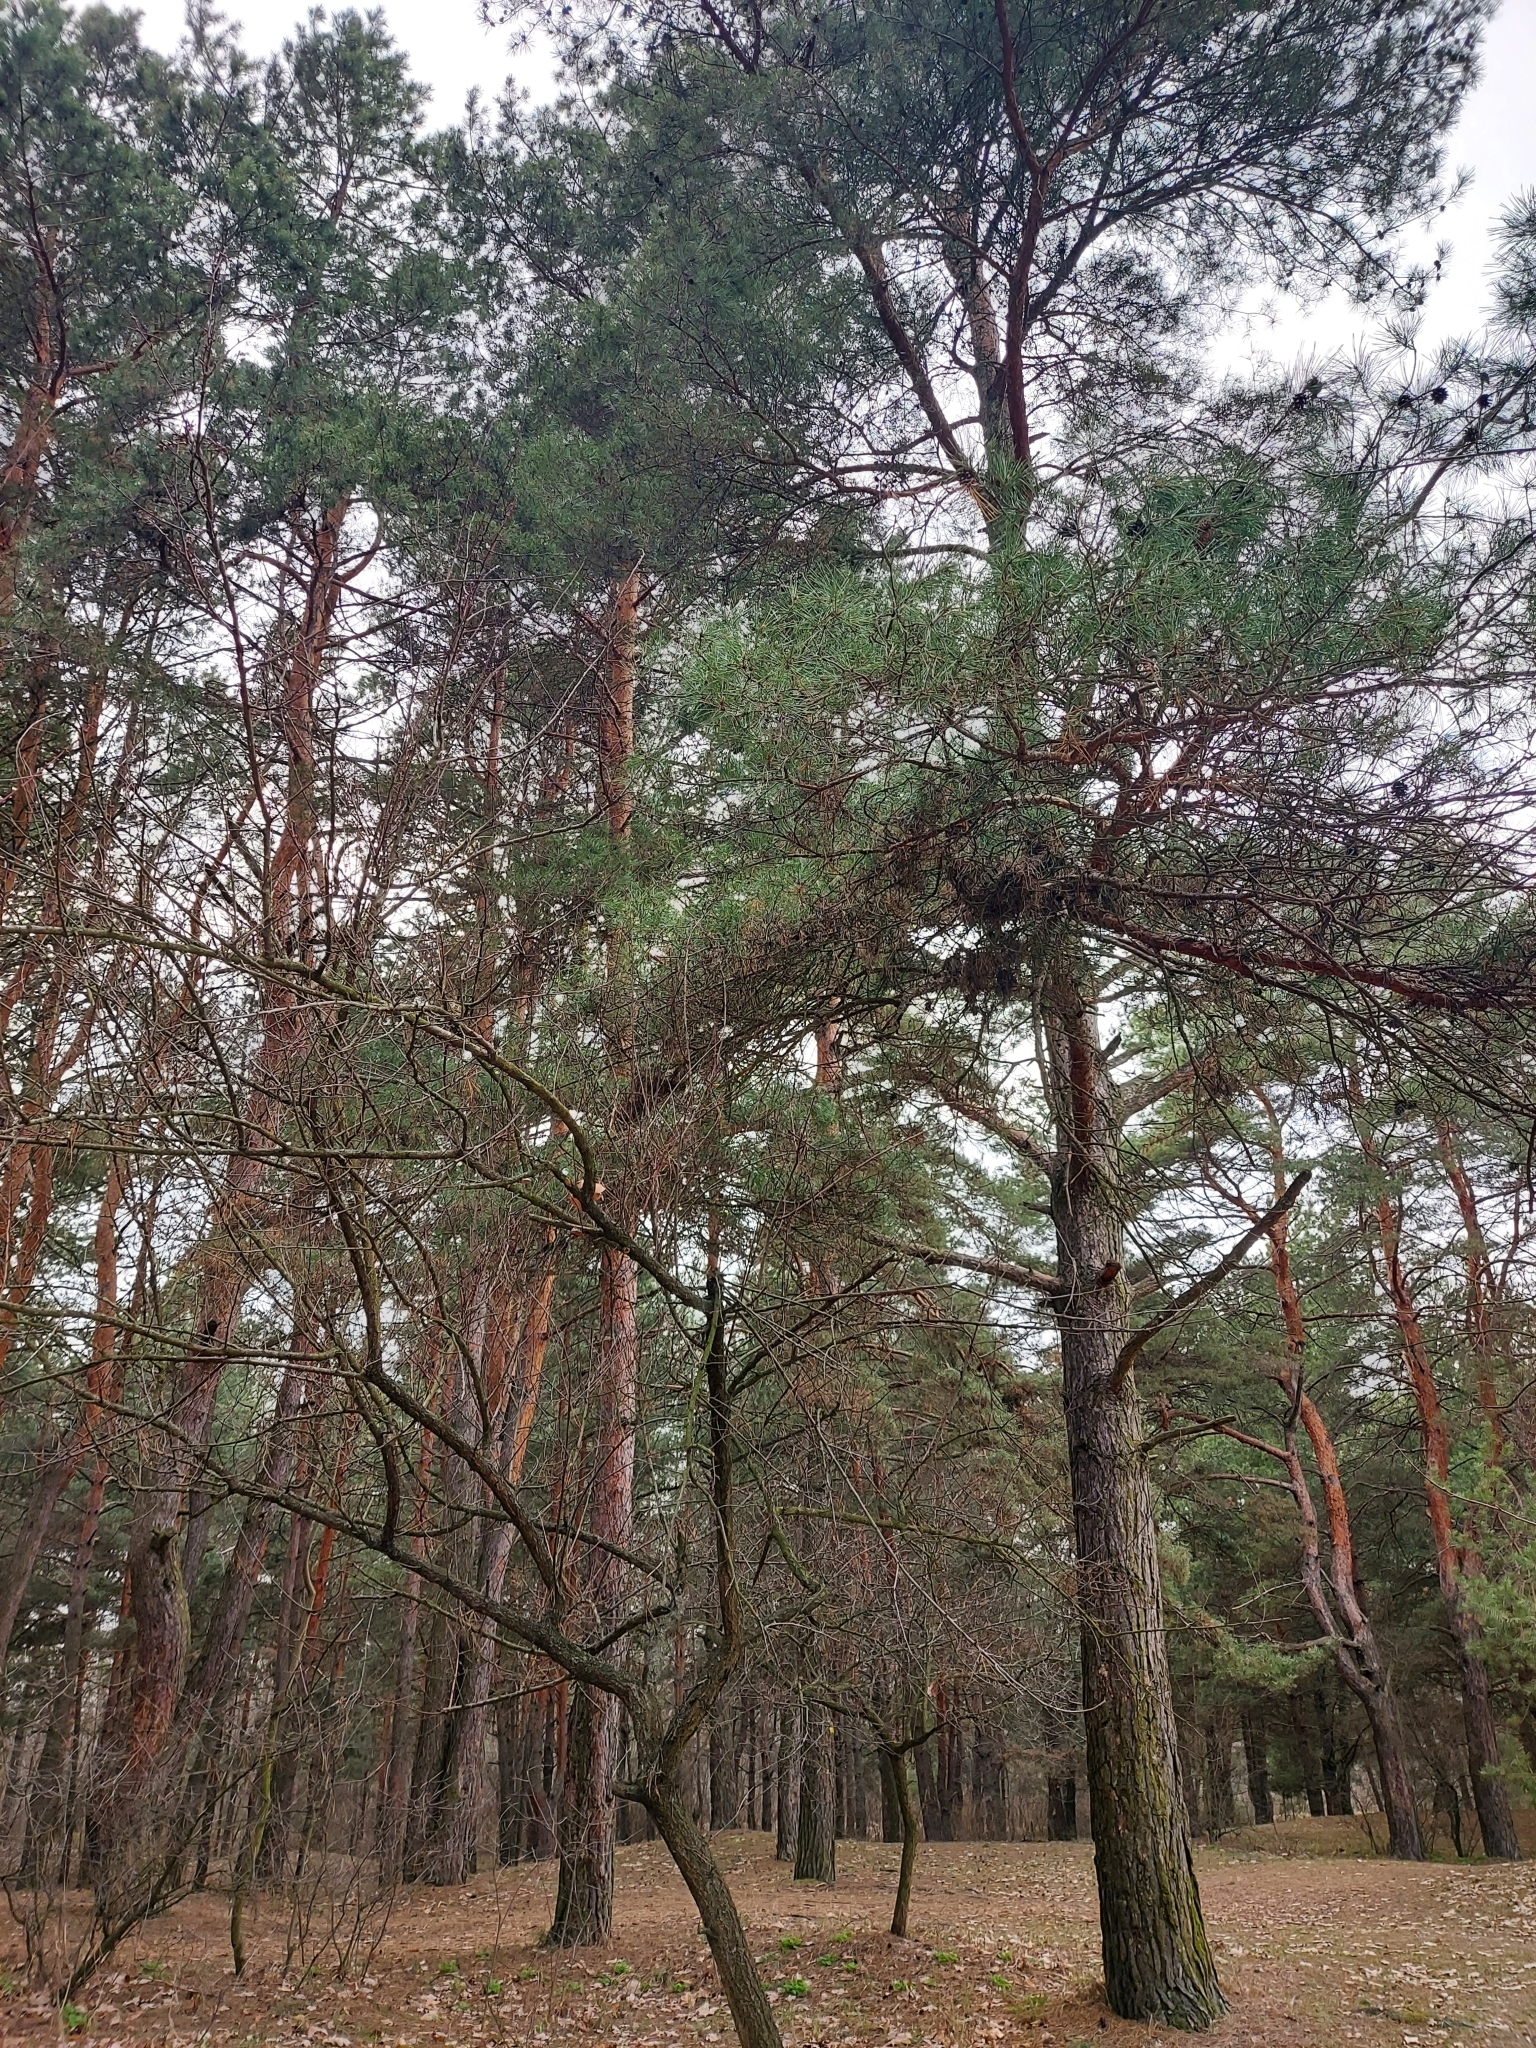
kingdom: Plantae
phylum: Tracheophyta
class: Pinopsida
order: Pinales
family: Pinaceae
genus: Pinus
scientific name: Pinus sylvestris
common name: Scots pine
